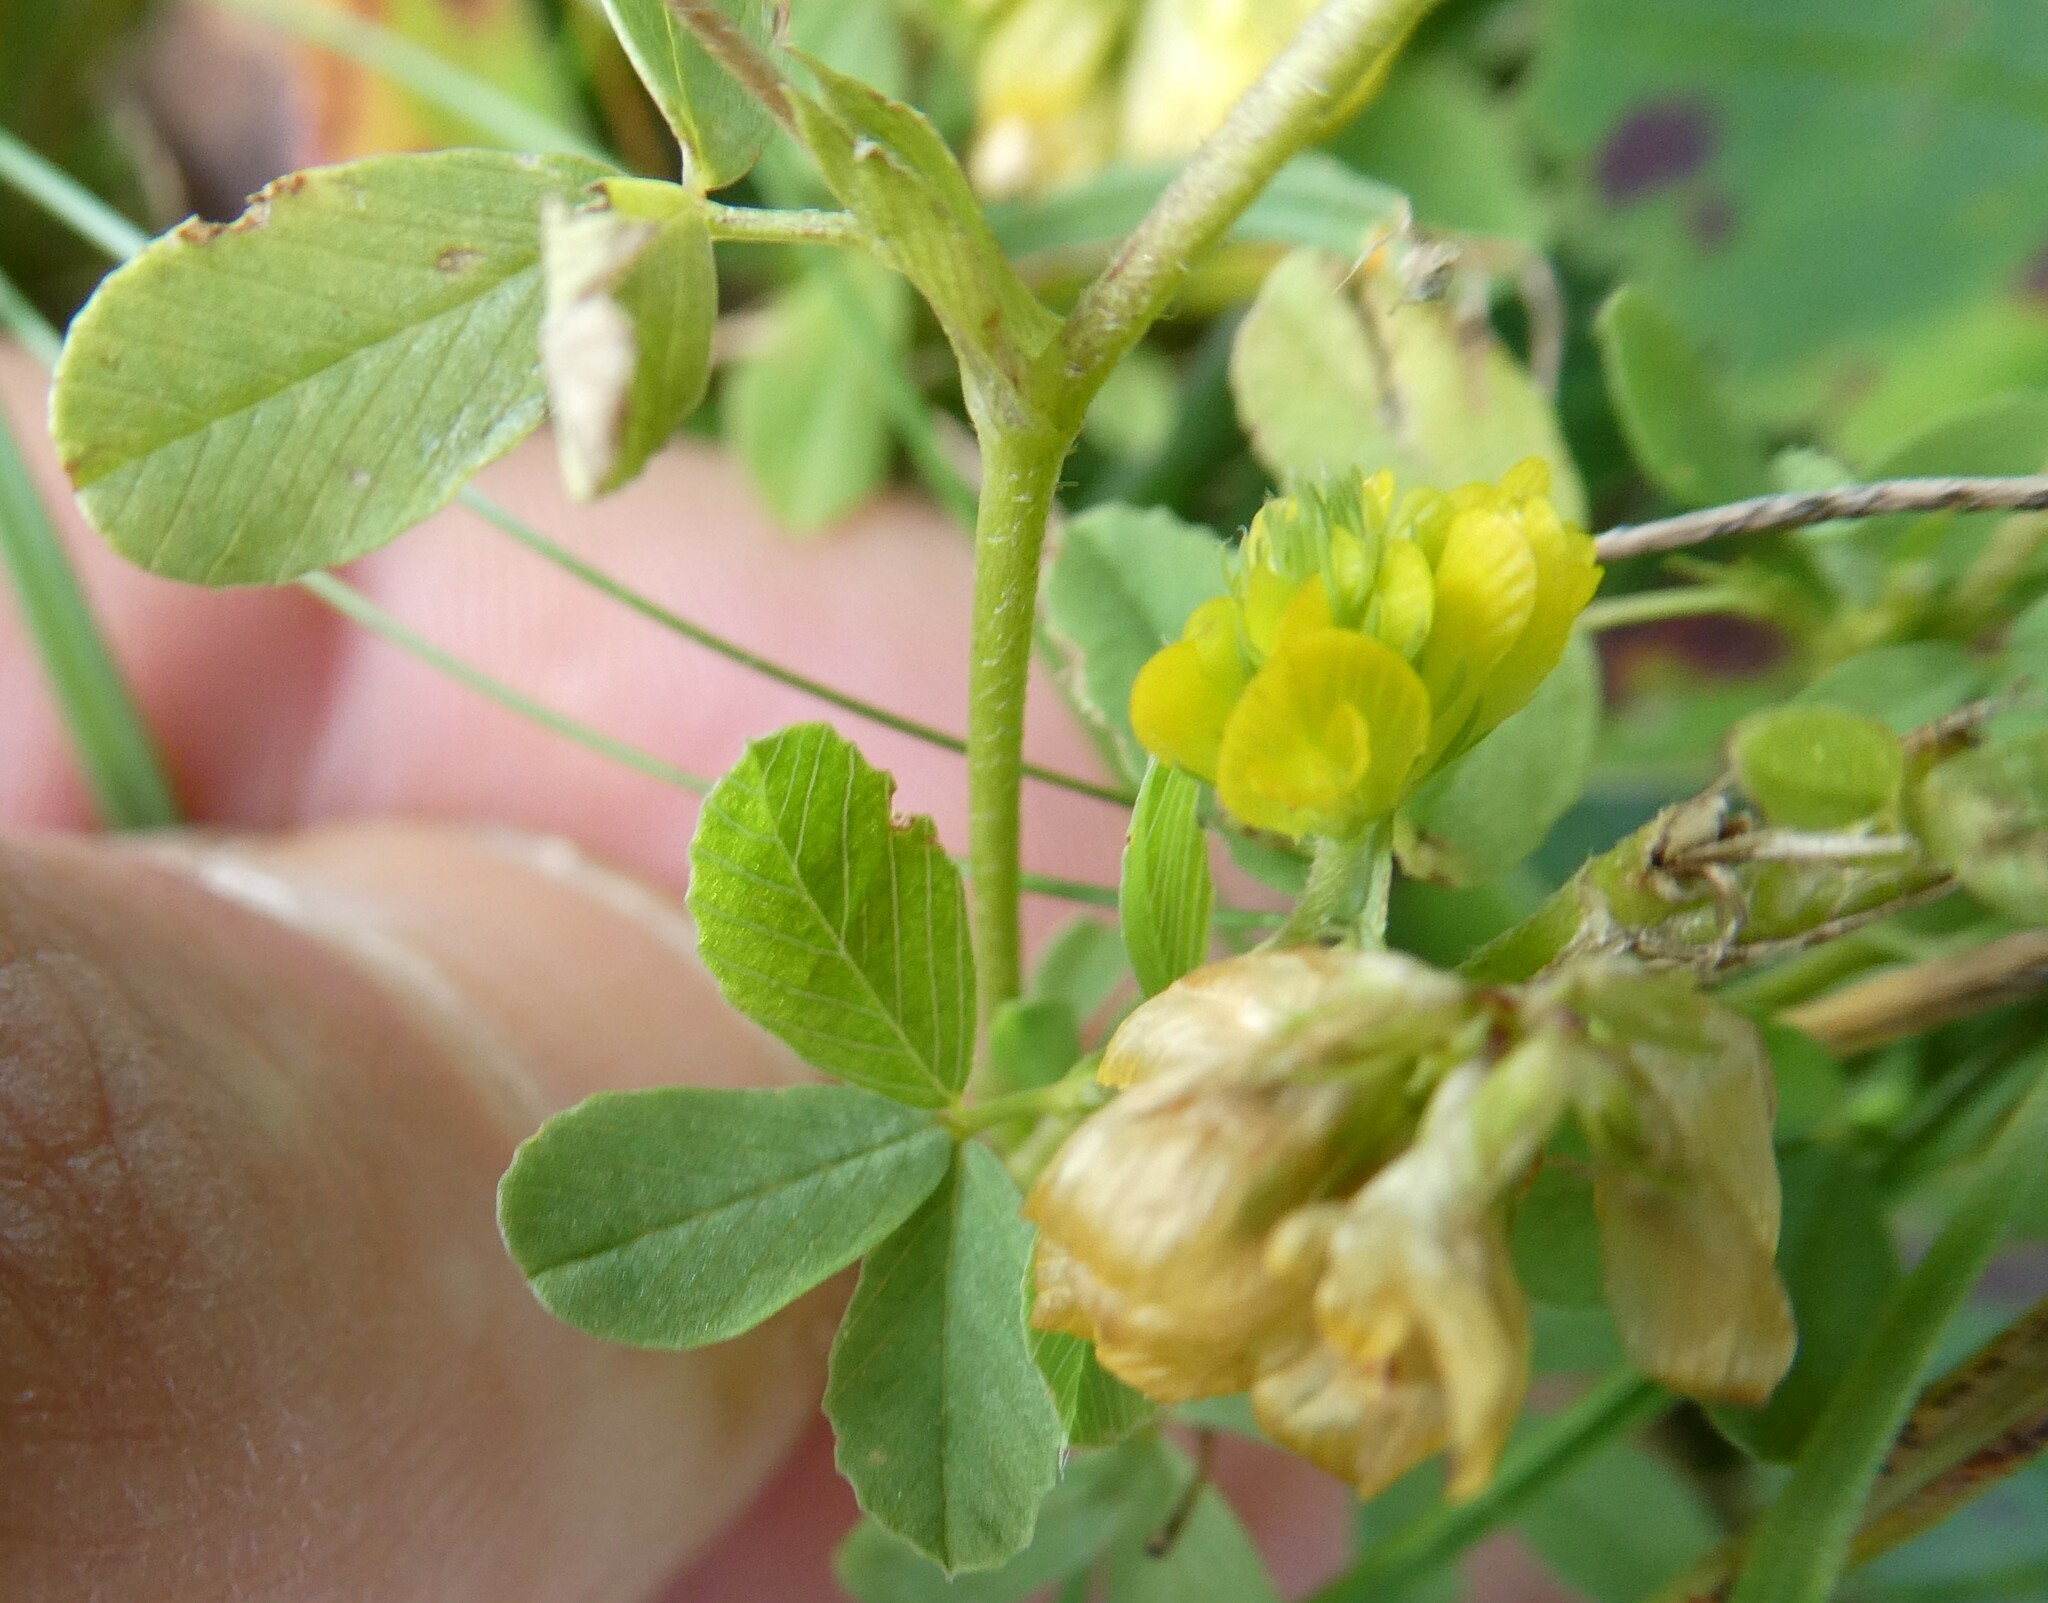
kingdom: Plantae
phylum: Tracheophyta
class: Magnoliopsida
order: Fabales
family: Fabaceae
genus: Trifolium
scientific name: Trifolium aureum
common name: Golden clover
